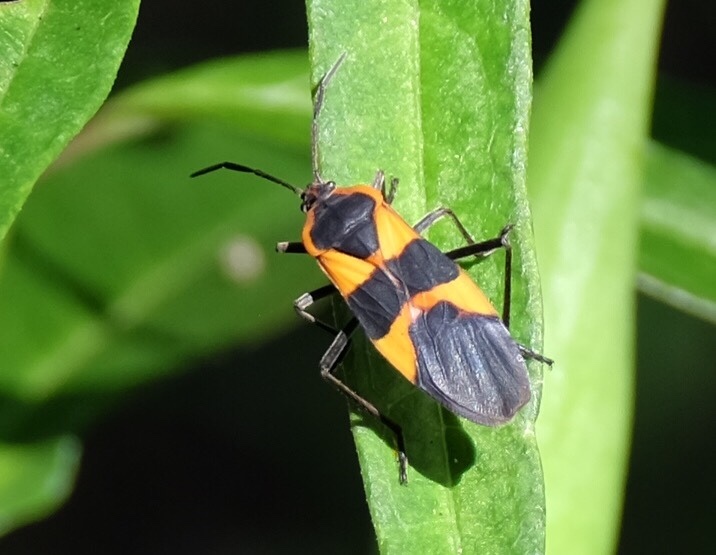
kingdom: Animalia
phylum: Arthropoda
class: Insecta
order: Hemiptera
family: Lygaeidae
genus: Oncopeltus
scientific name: Oncopeltus fasciatus
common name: Large milkweed bug
